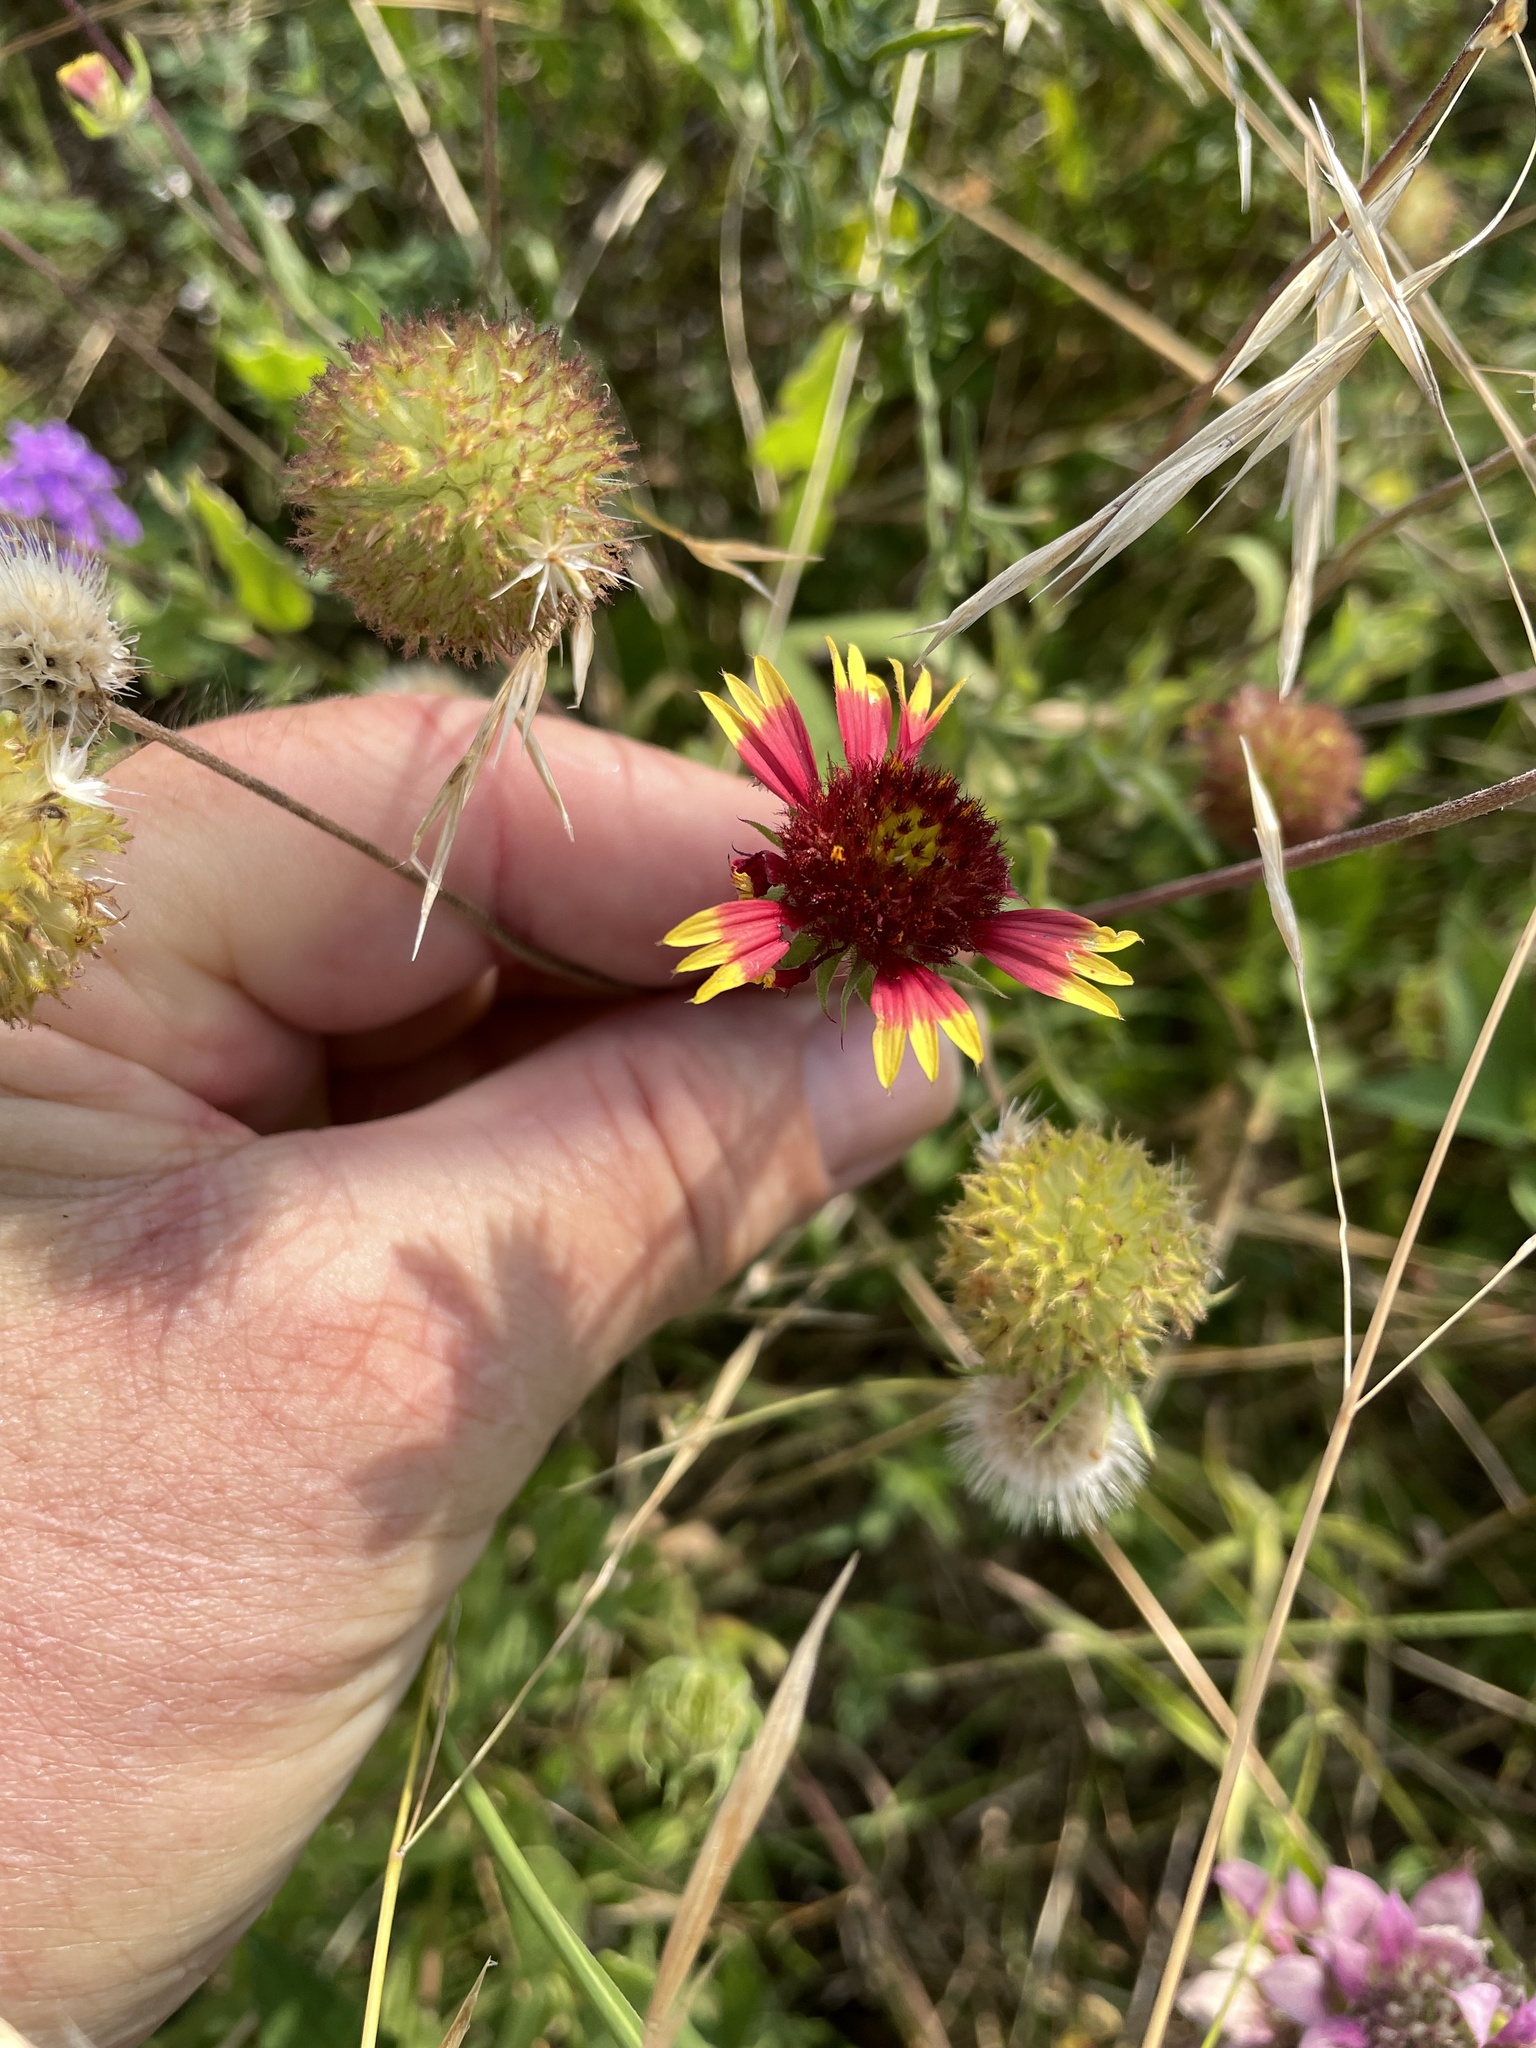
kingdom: Plantae
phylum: Tracheophyta
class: Magnoliopsida
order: Asterales
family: Asteraceae
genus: Gaillardia
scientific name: Gaillardia pulchella
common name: Firewheel
